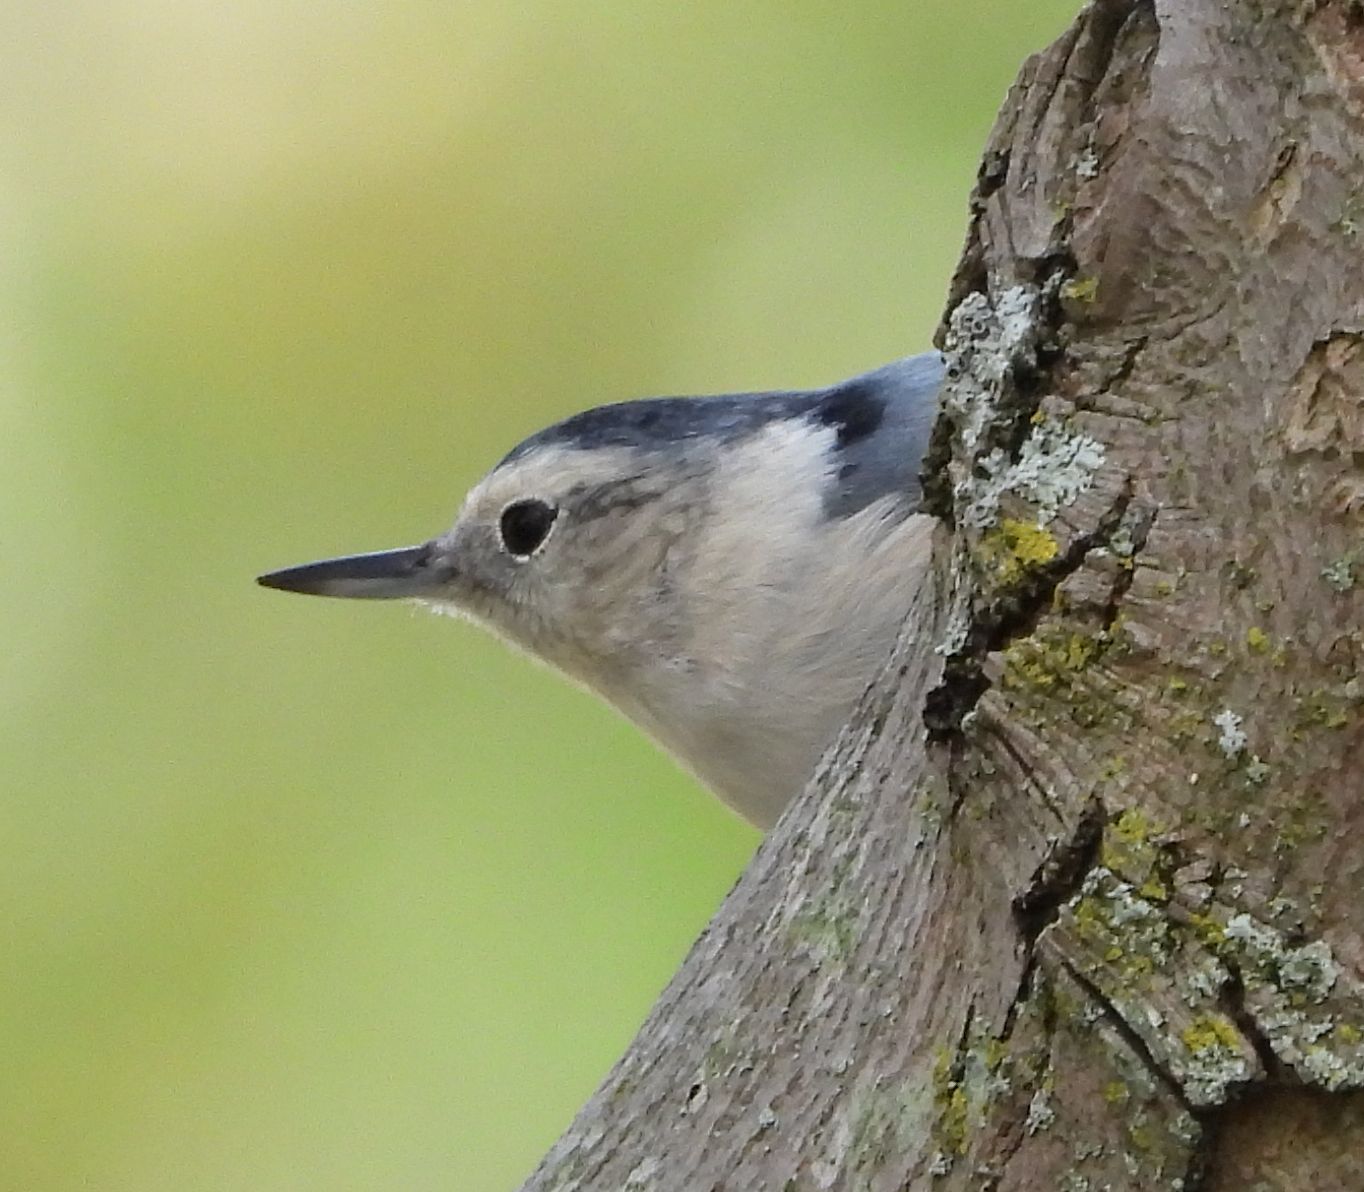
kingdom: Animalia
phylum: Chordata
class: Aves
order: Passeriformes
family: Sittidae
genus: Sitta
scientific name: Sitta carolinensis
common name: White-breasted nuthatch
